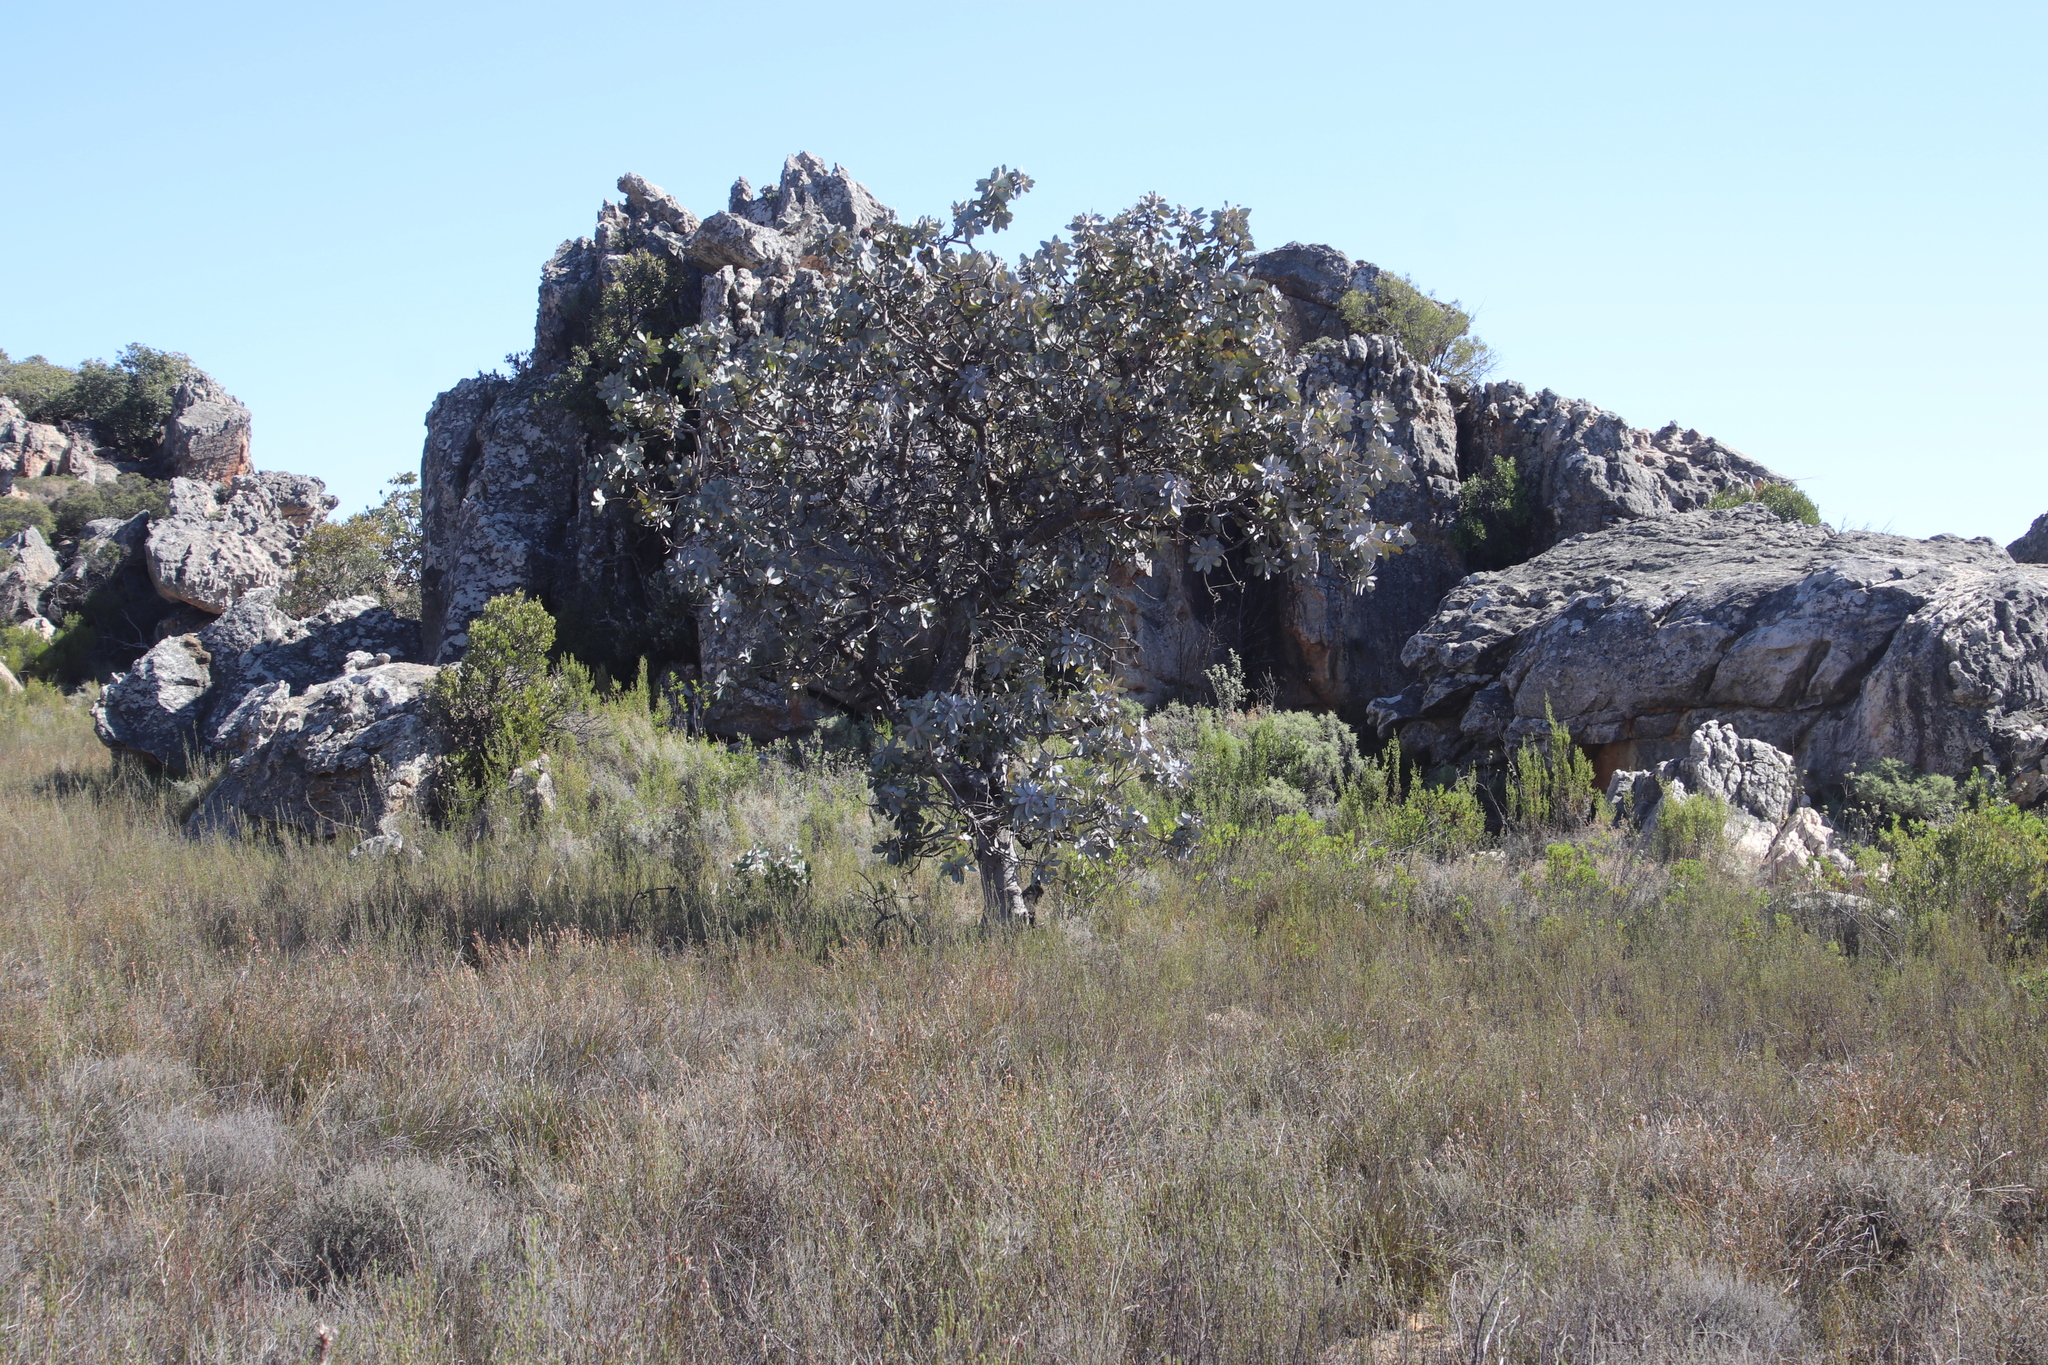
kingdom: Plantae
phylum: Tracheophyta
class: Magnoliopsida
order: Proteales
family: Proteaceae
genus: Protea
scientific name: Protea nitida
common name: Tree protea
